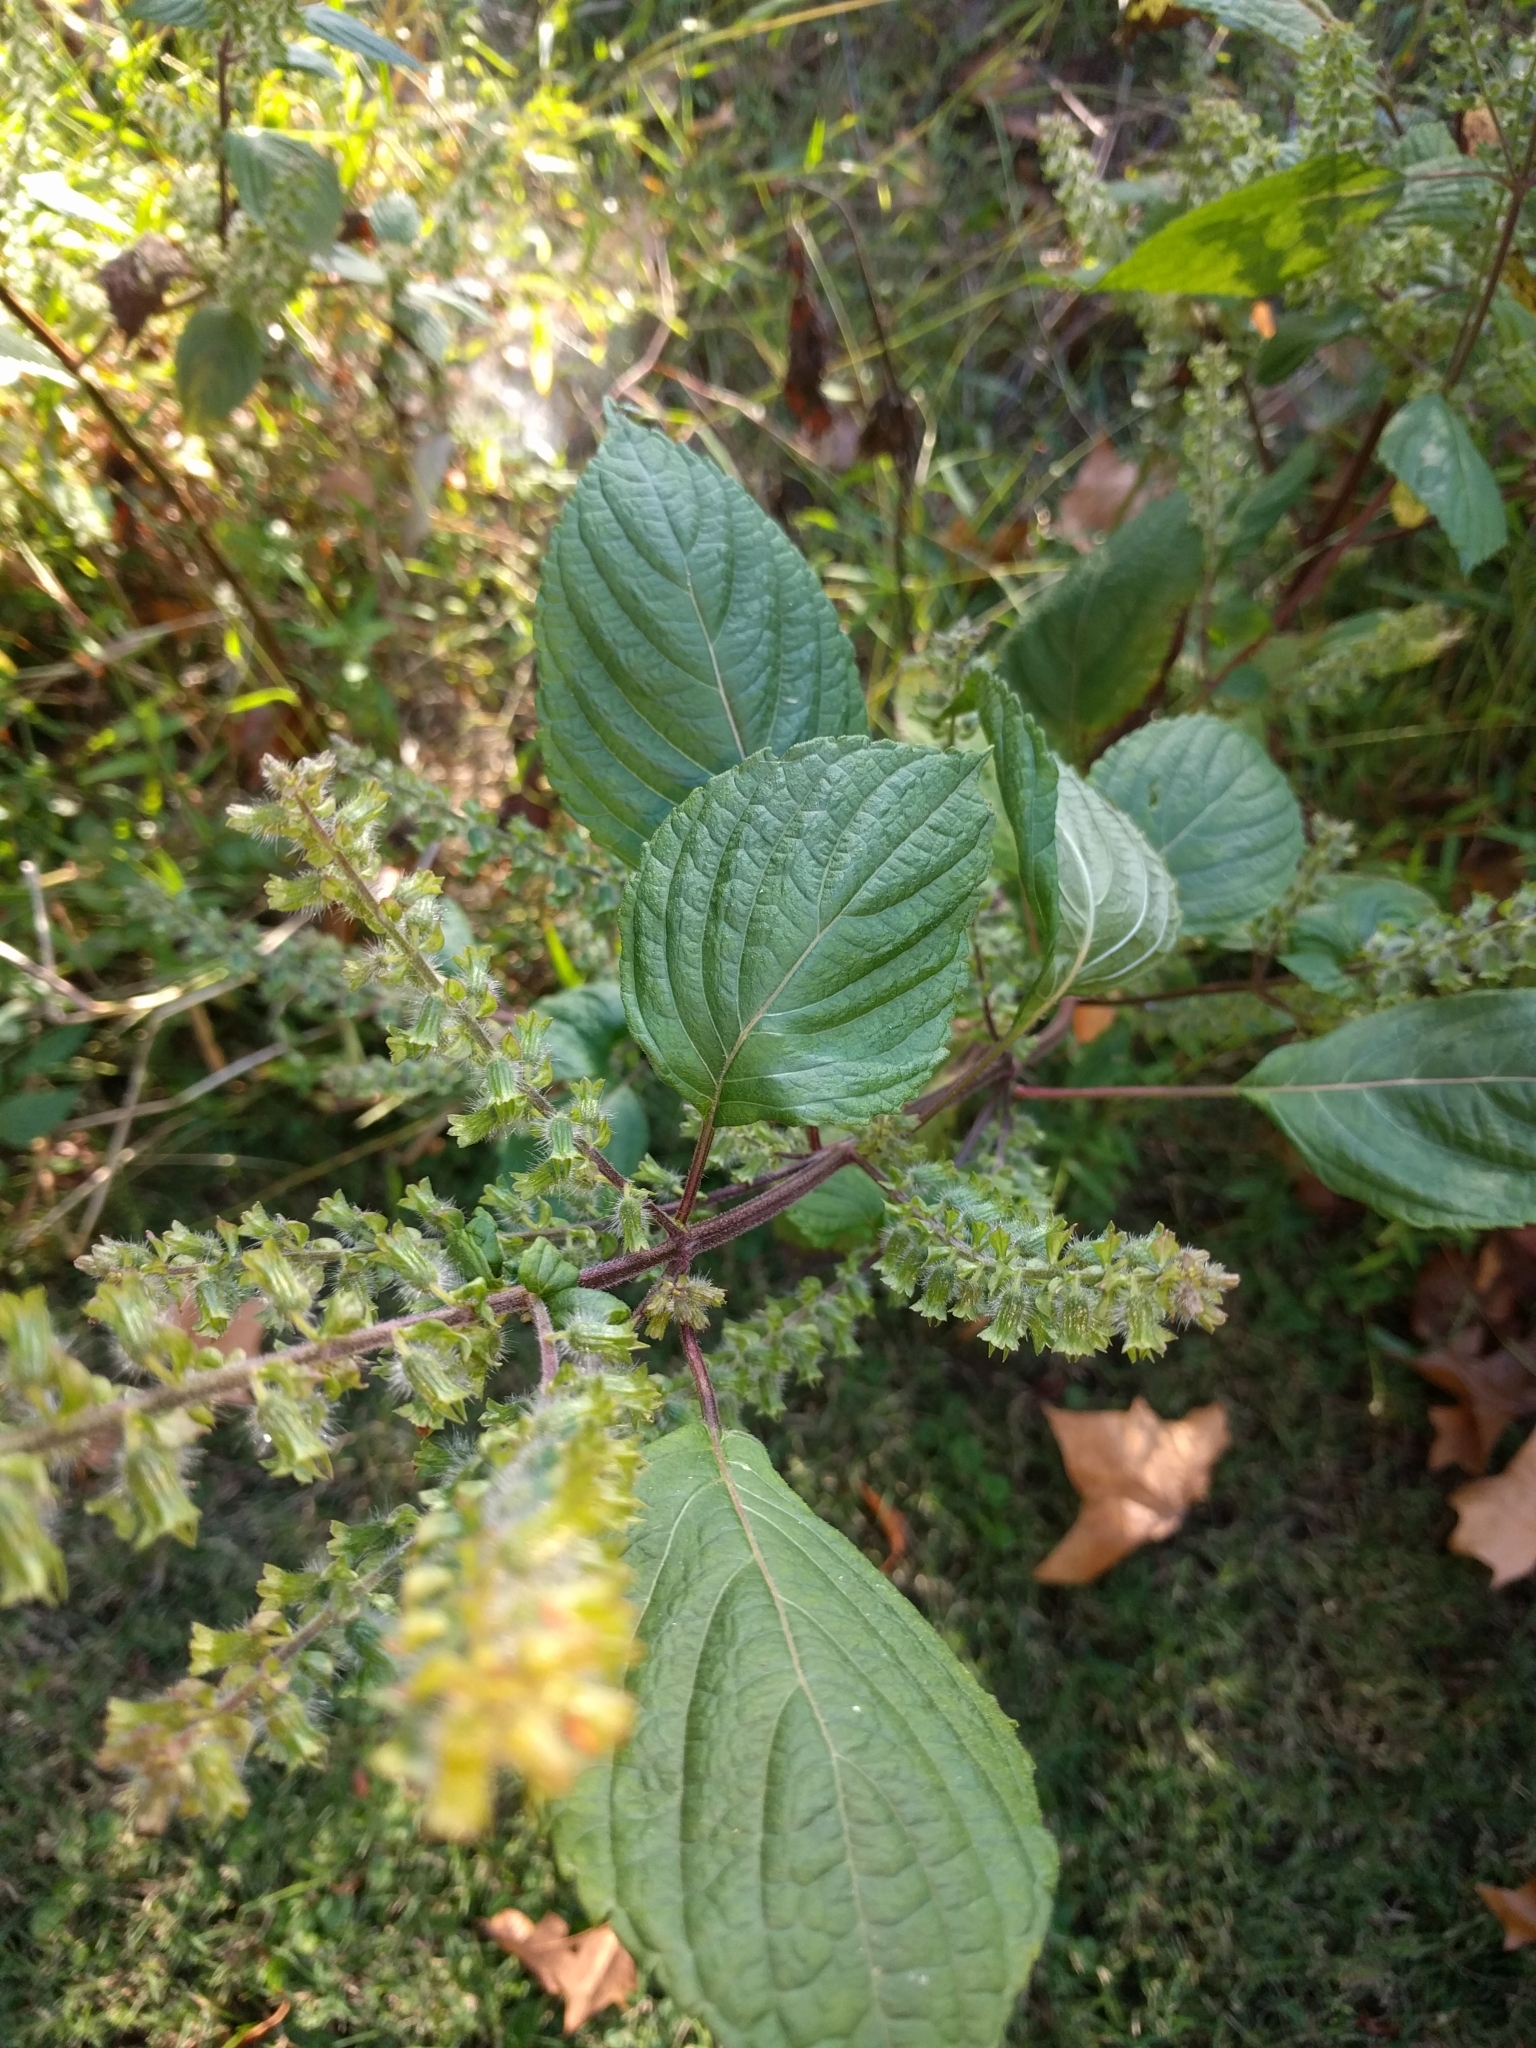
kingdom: Plantae
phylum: Tracheophyta
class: Magnoliopsida
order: Lamiales
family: Lamiaceae
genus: Perilla
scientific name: Perilla frutescens
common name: Perilla
